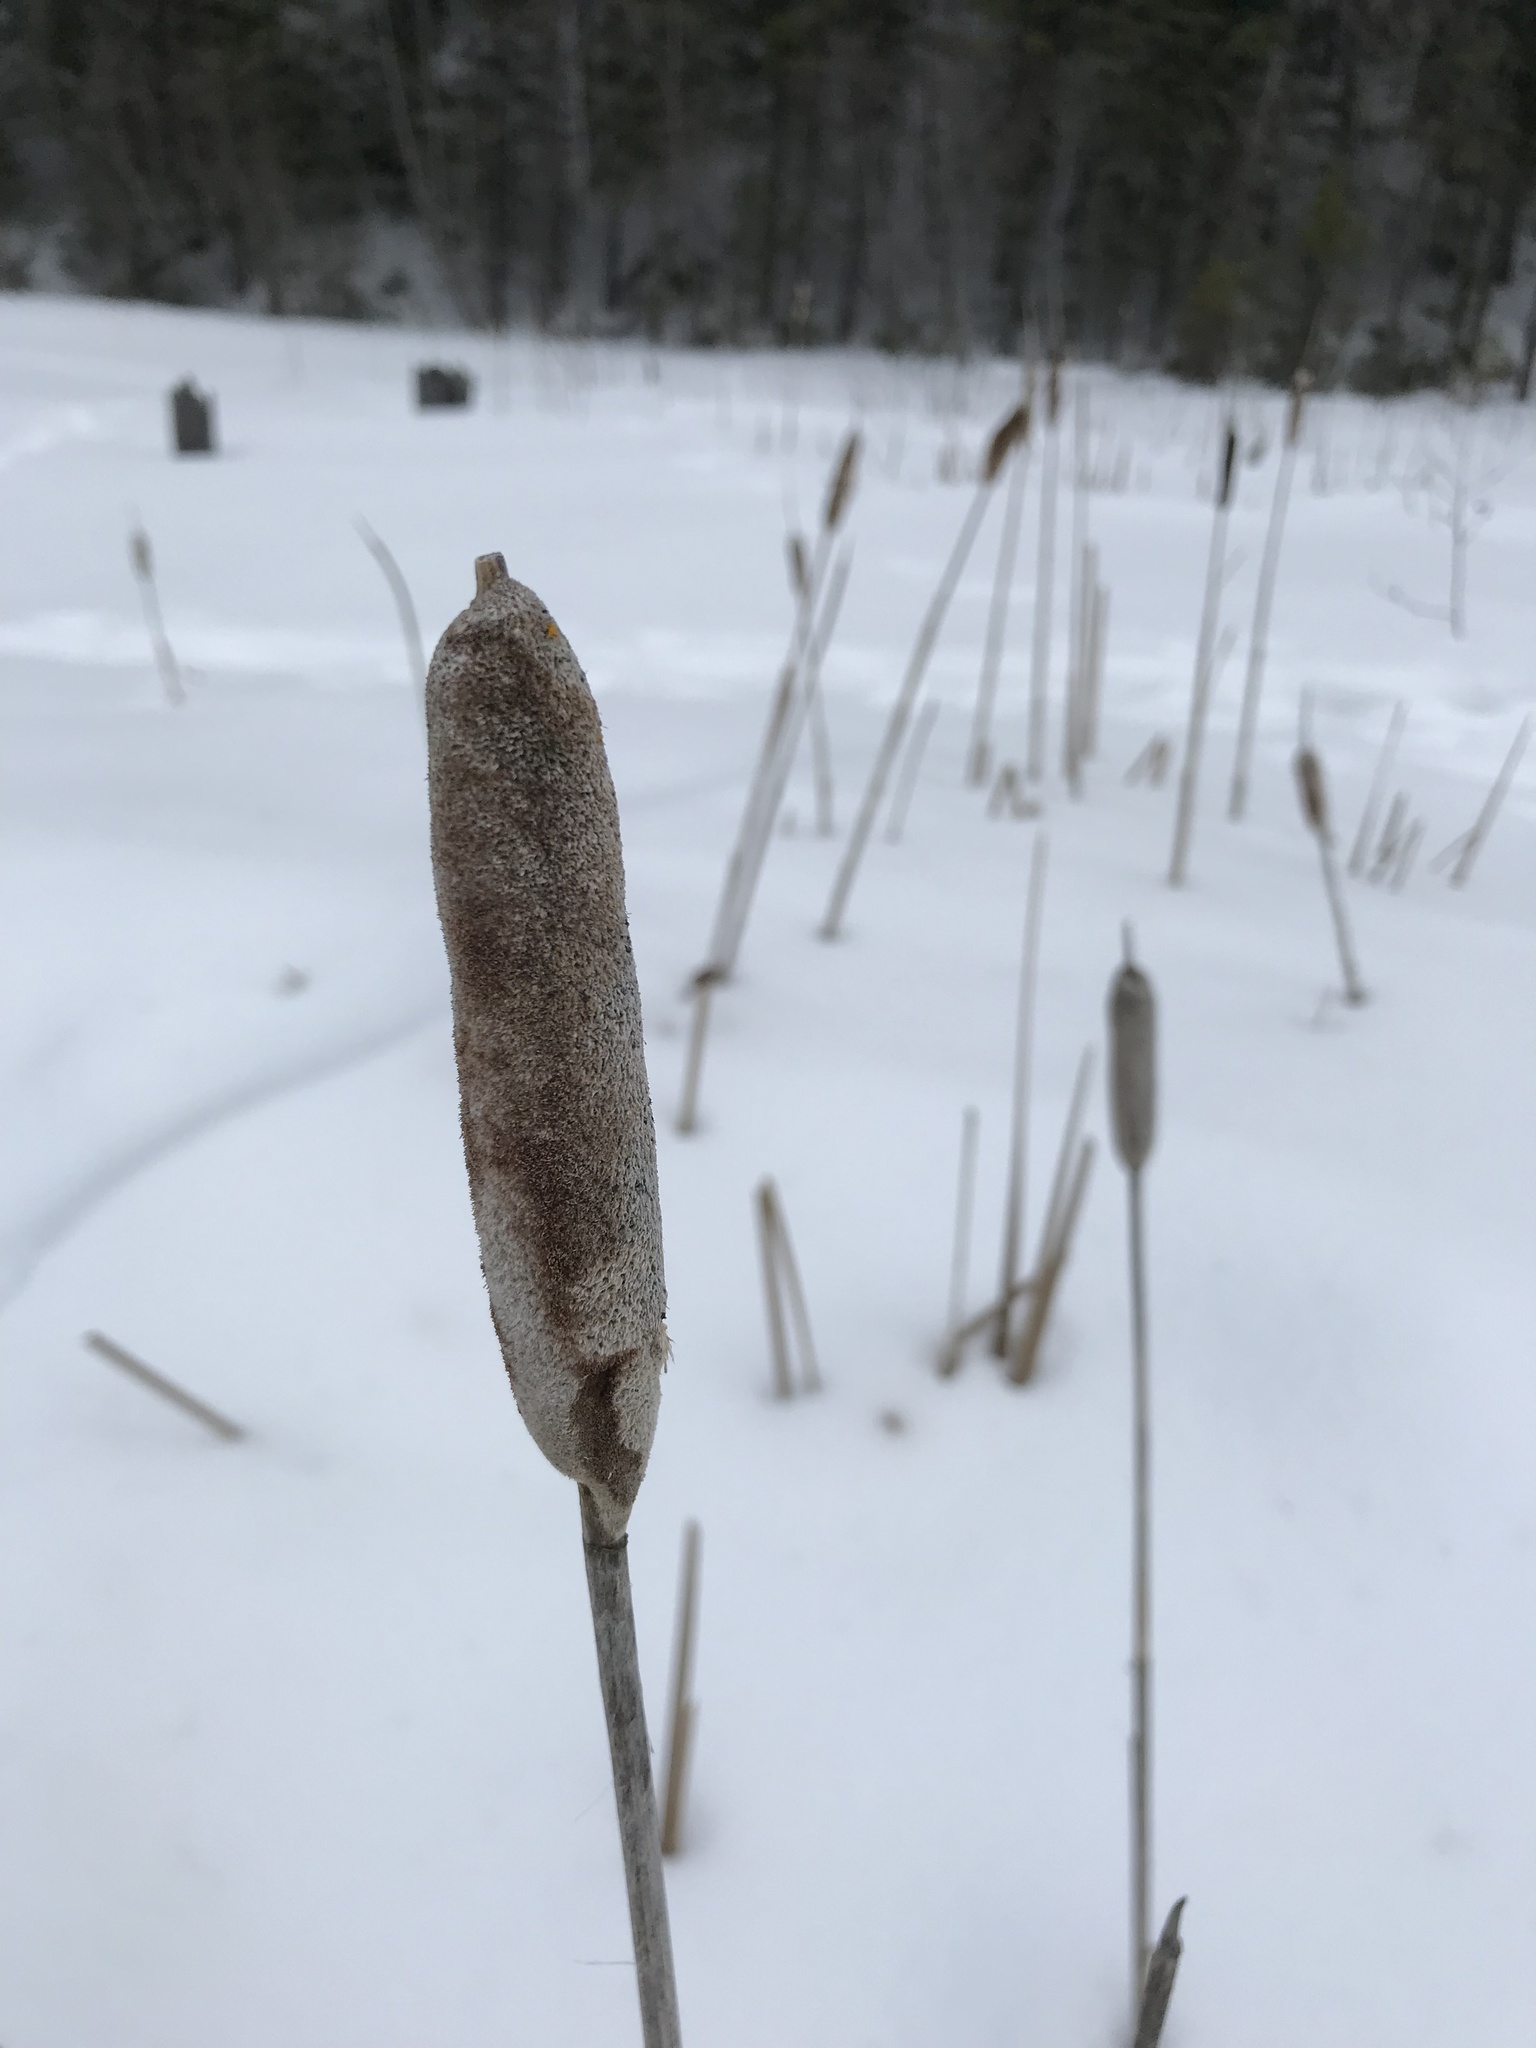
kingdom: Plantae
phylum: Tracheophyta
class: Liliopsida
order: Poales
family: Typhaceae
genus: Typha
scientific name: Typha latifolia
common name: Broadleaf cattail
